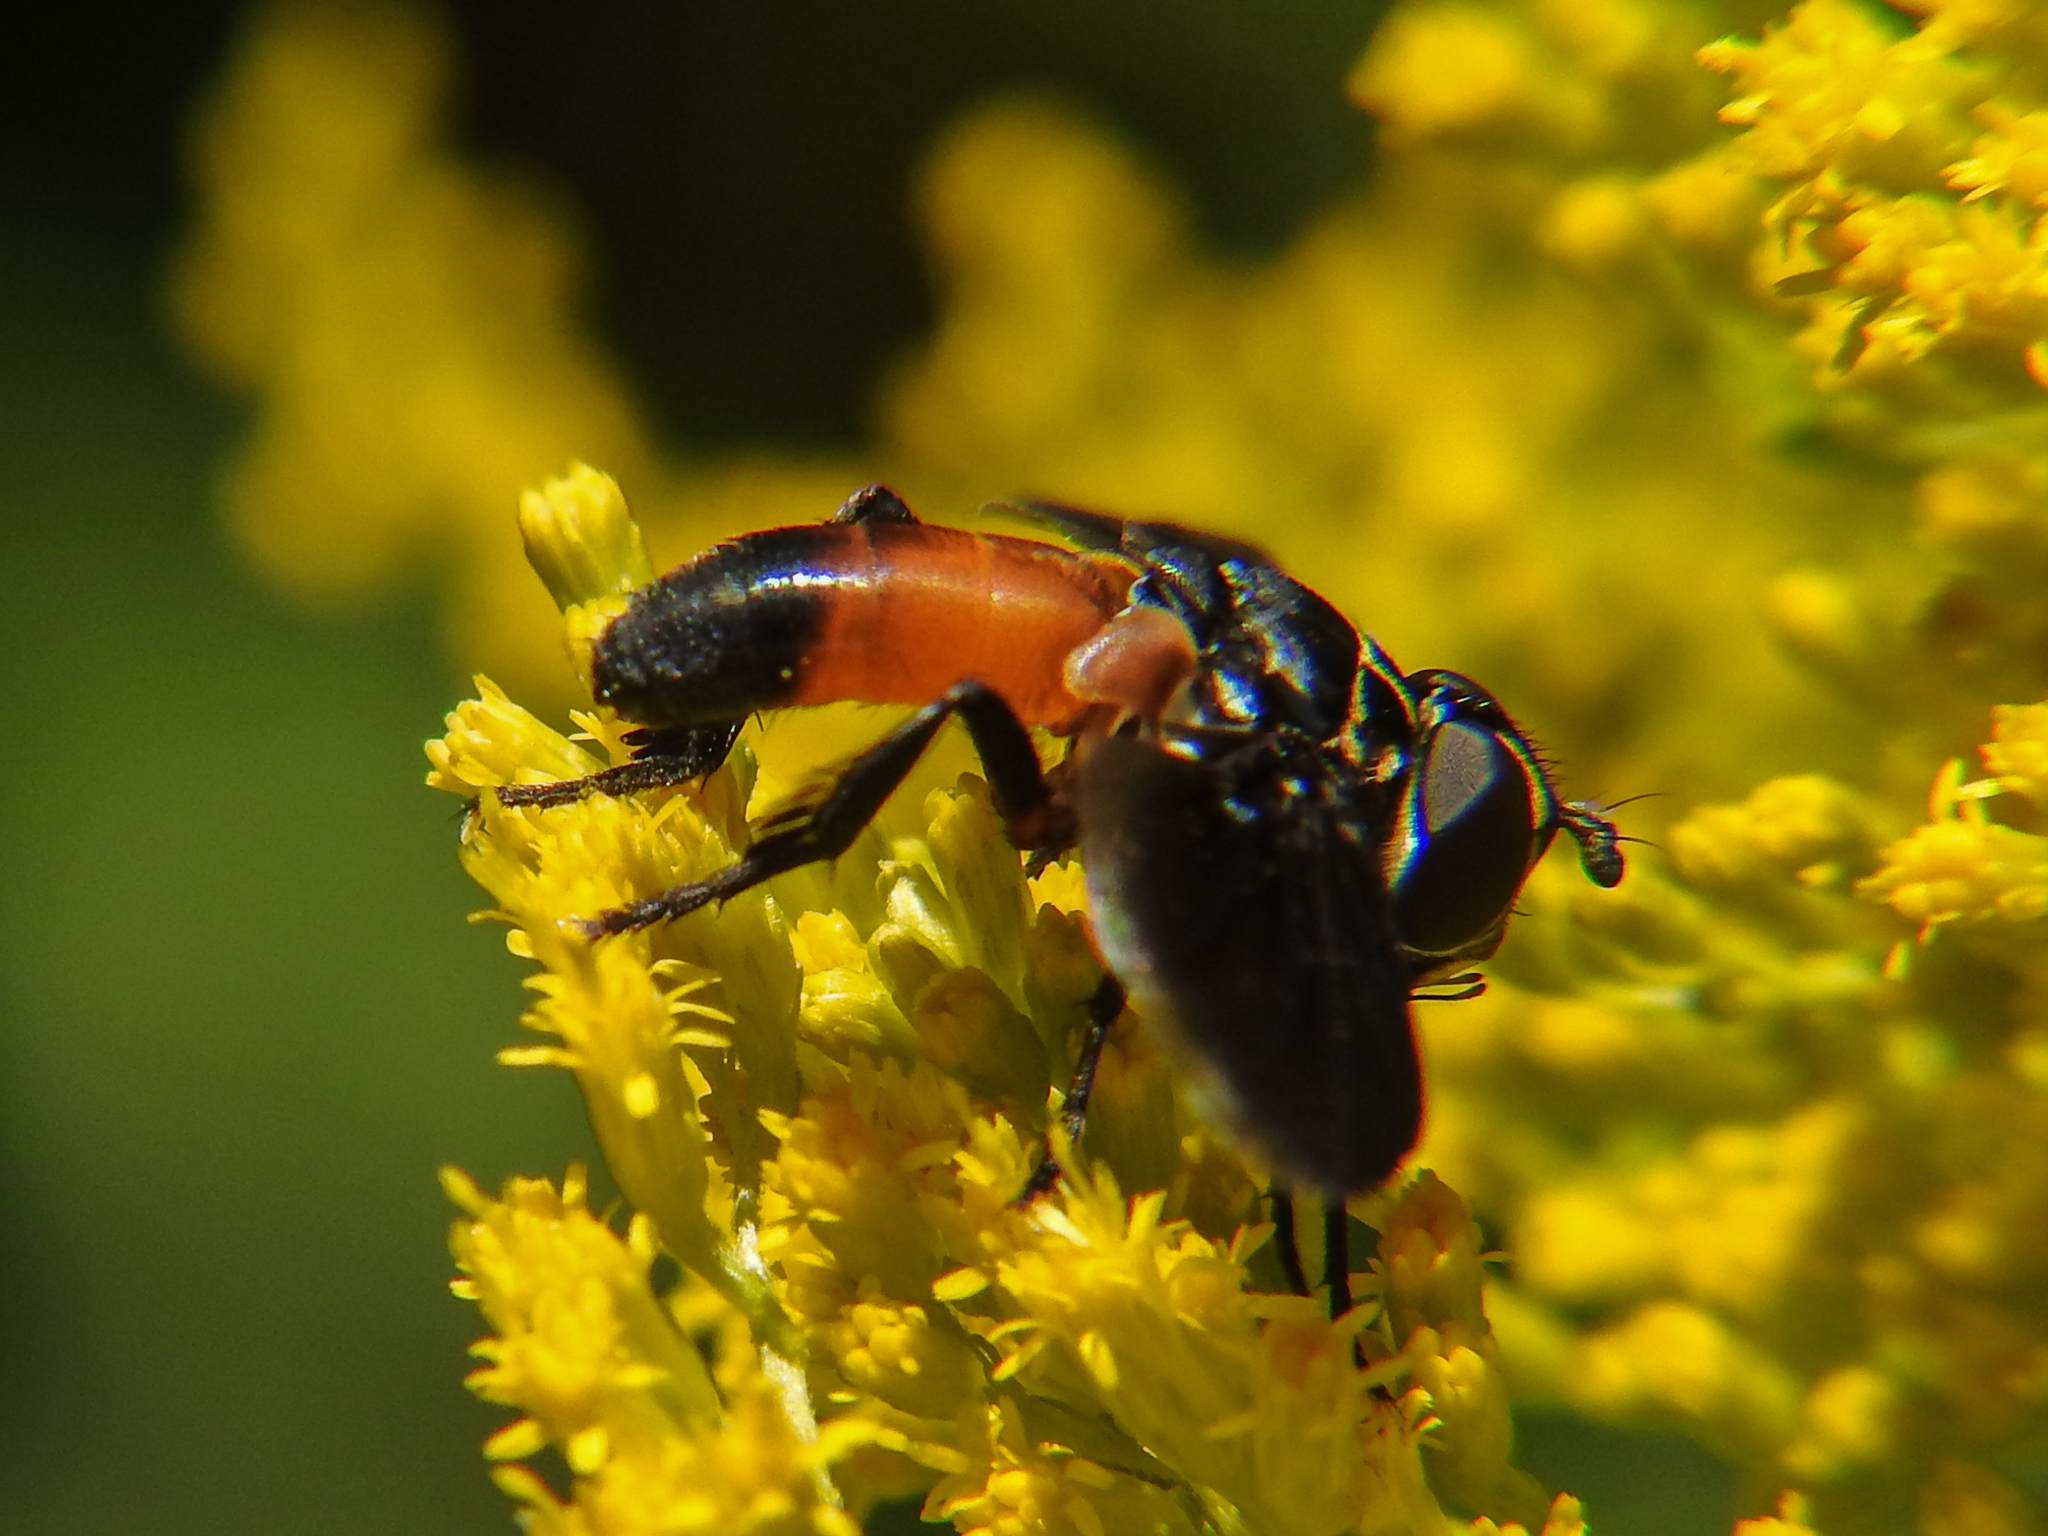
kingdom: Animalia
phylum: Arthropoda
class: Insecta
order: Diptera
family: Tachinidae
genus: Trichopoda
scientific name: Trichopoda pennipes
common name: Tachinid fly
